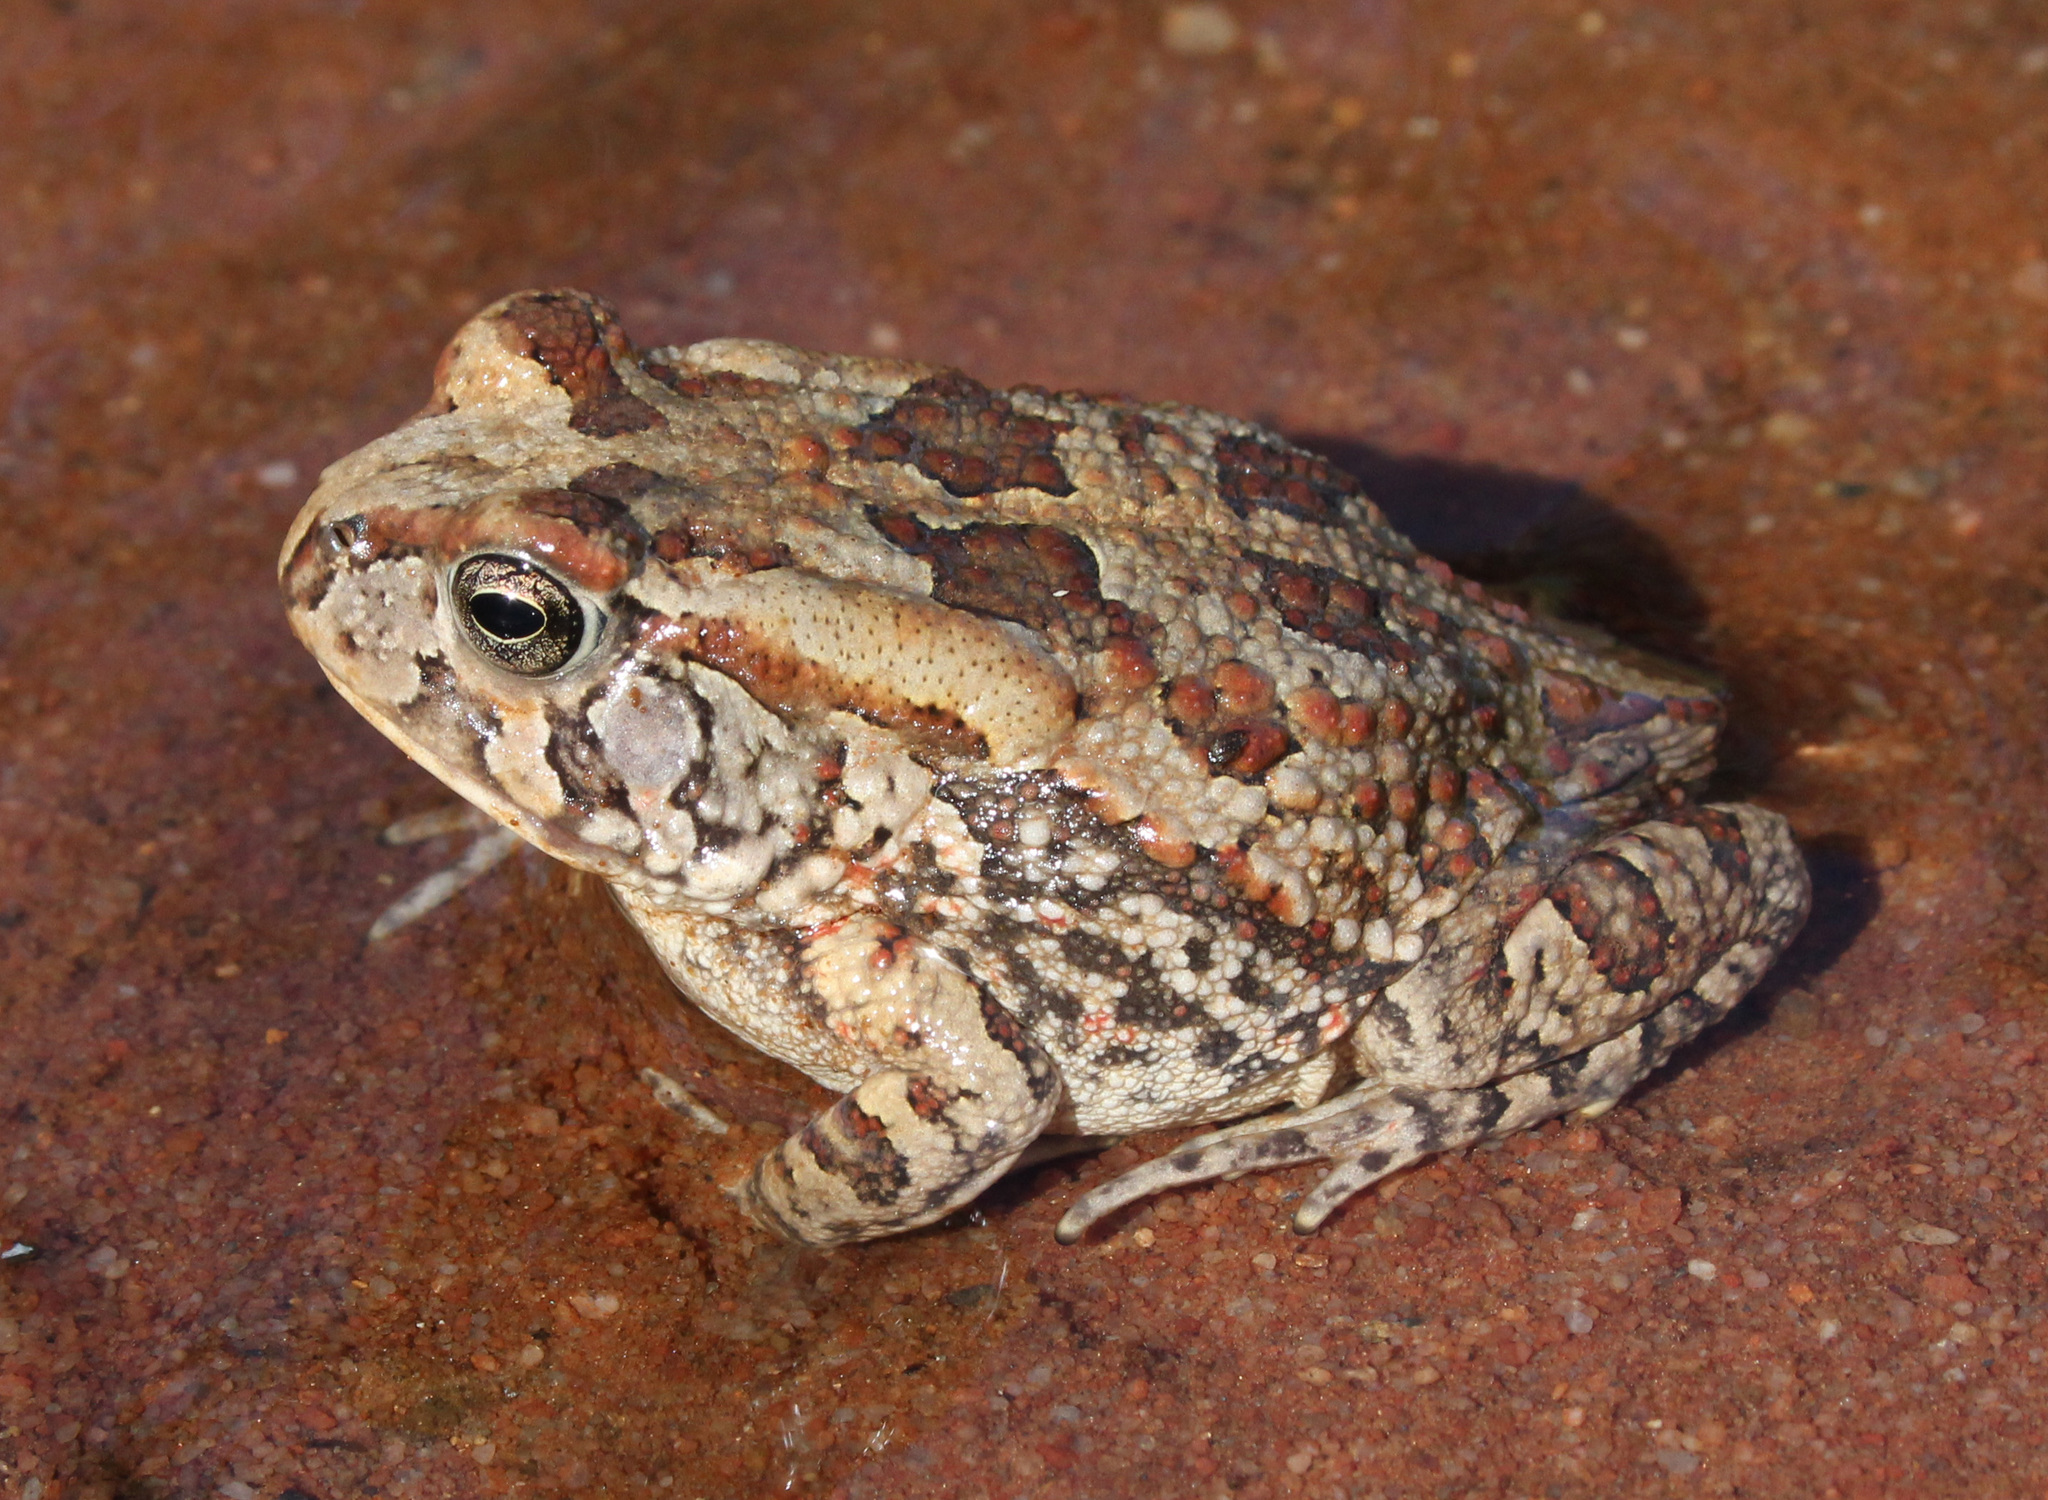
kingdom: Animalia
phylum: Chordata
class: Amphibia
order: Anura
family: Bufonidae
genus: Sclerophrys
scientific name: Sclerophrys poweri
